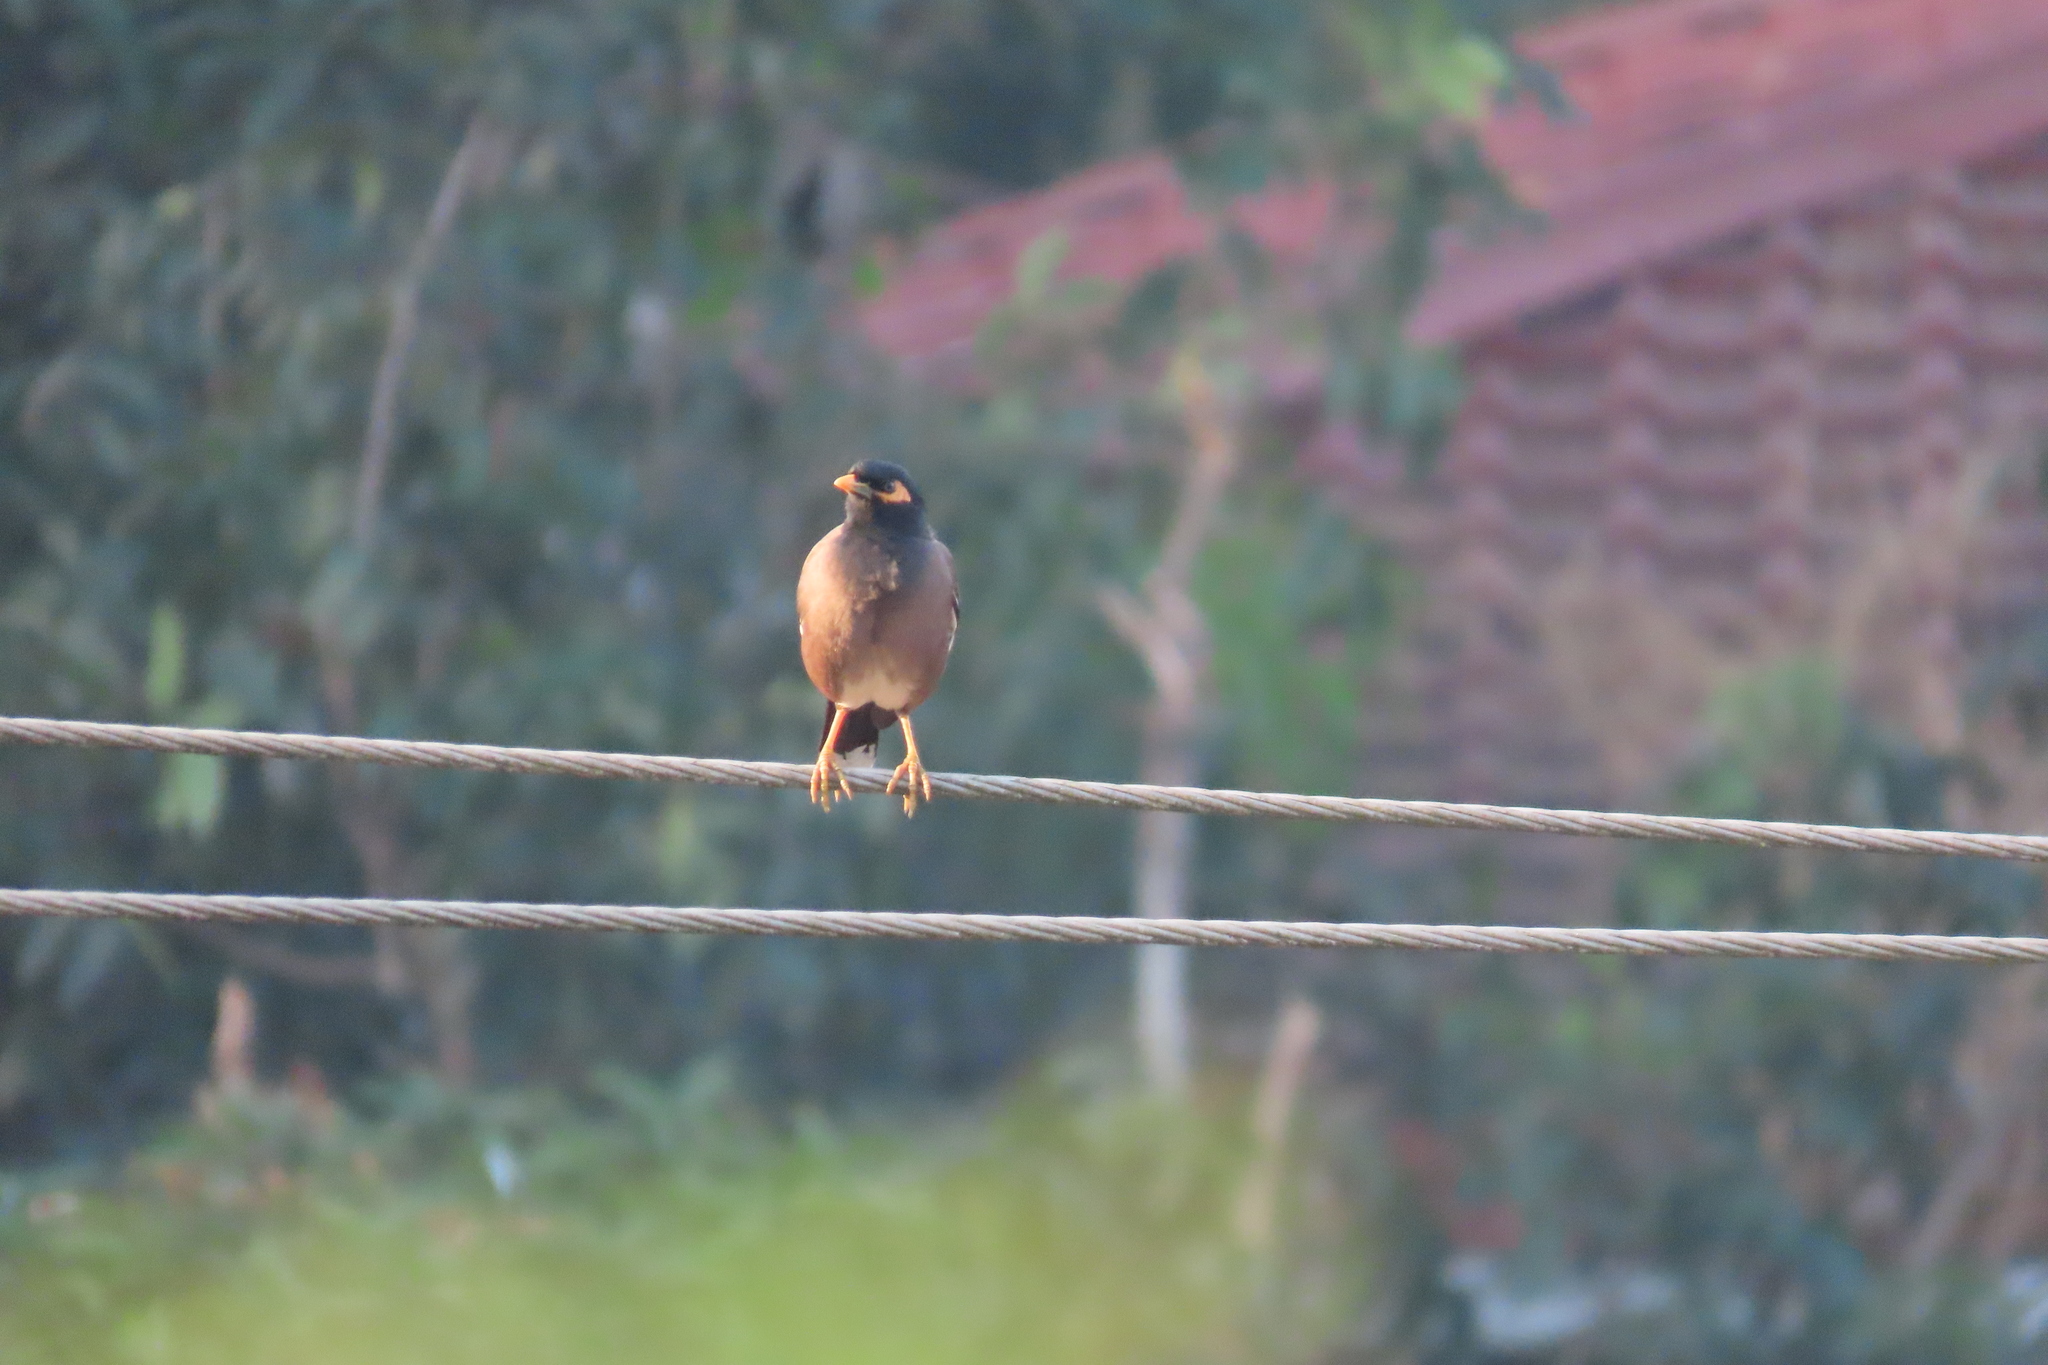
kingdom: Animalia
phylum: Chordata
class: Aves
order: Passeriformes
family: Sturnidae
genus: Acridotheres
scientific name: Acridotheres tristis
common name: Common myna
